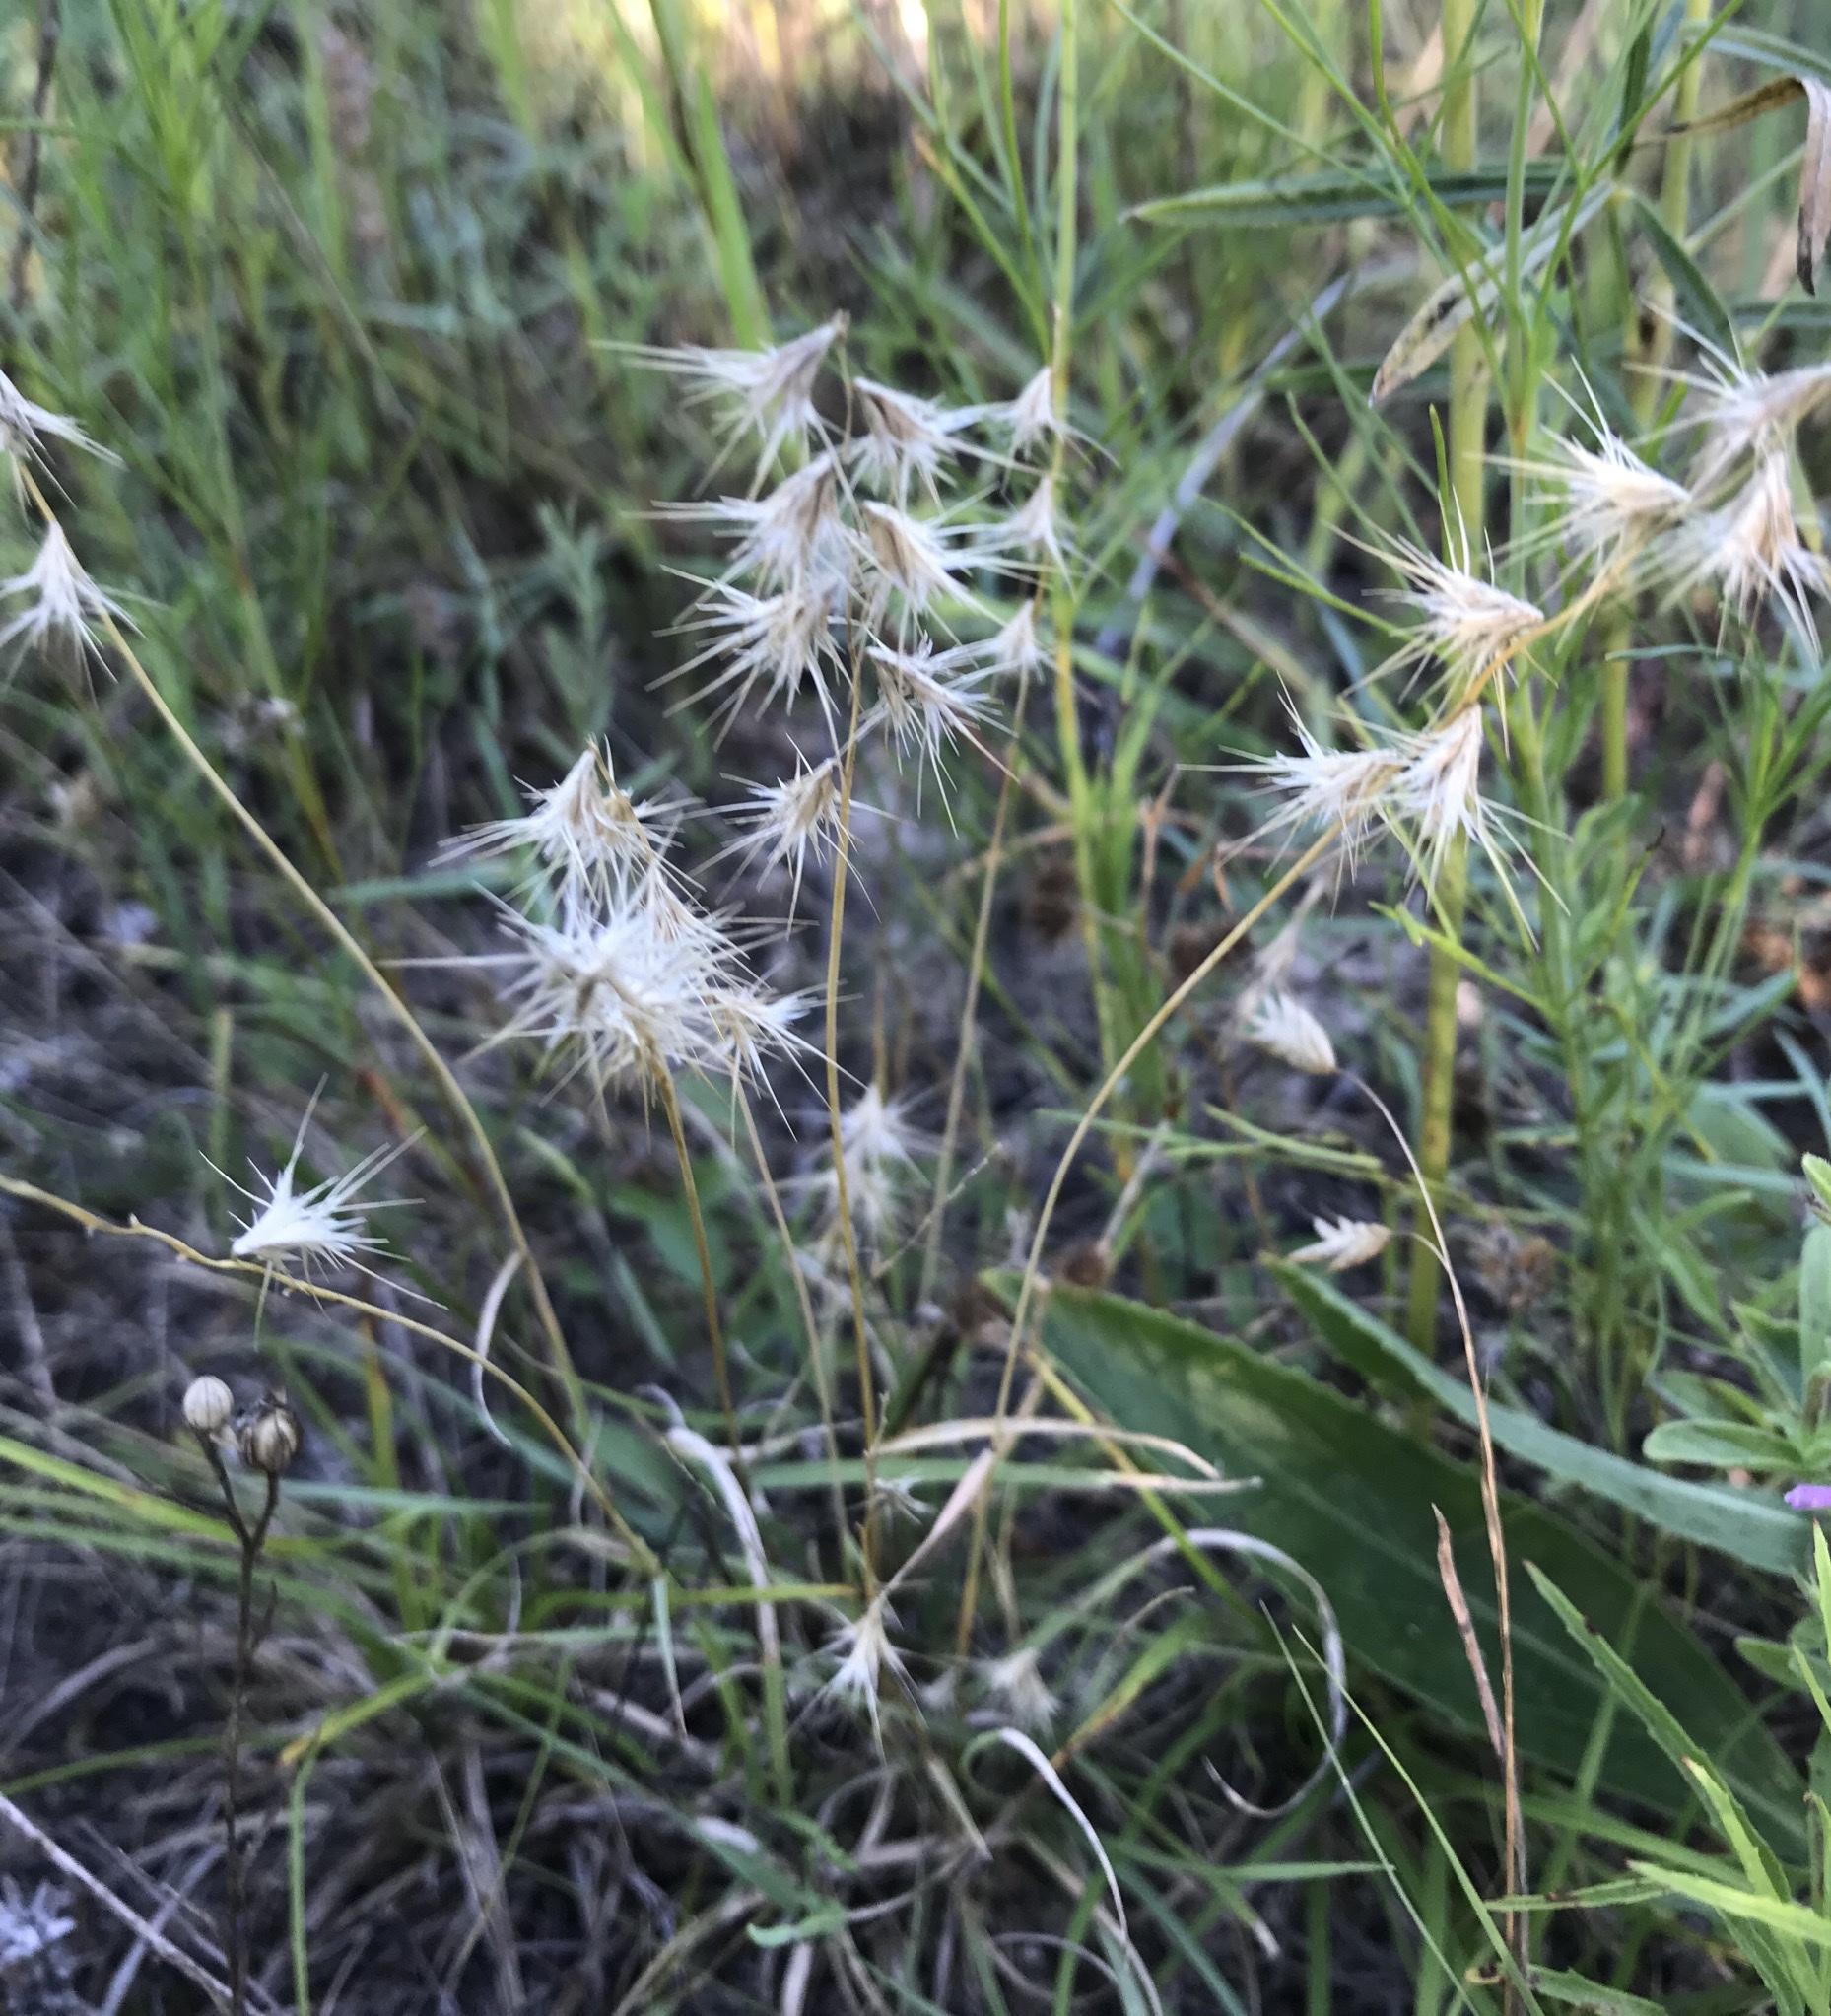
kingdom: Plantae
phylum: Tracheophyta
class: Liliopsida
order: Poales
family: Poaceae
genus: Bouteloua
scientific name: Bouteloua rigidiseta
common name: Texas grama
